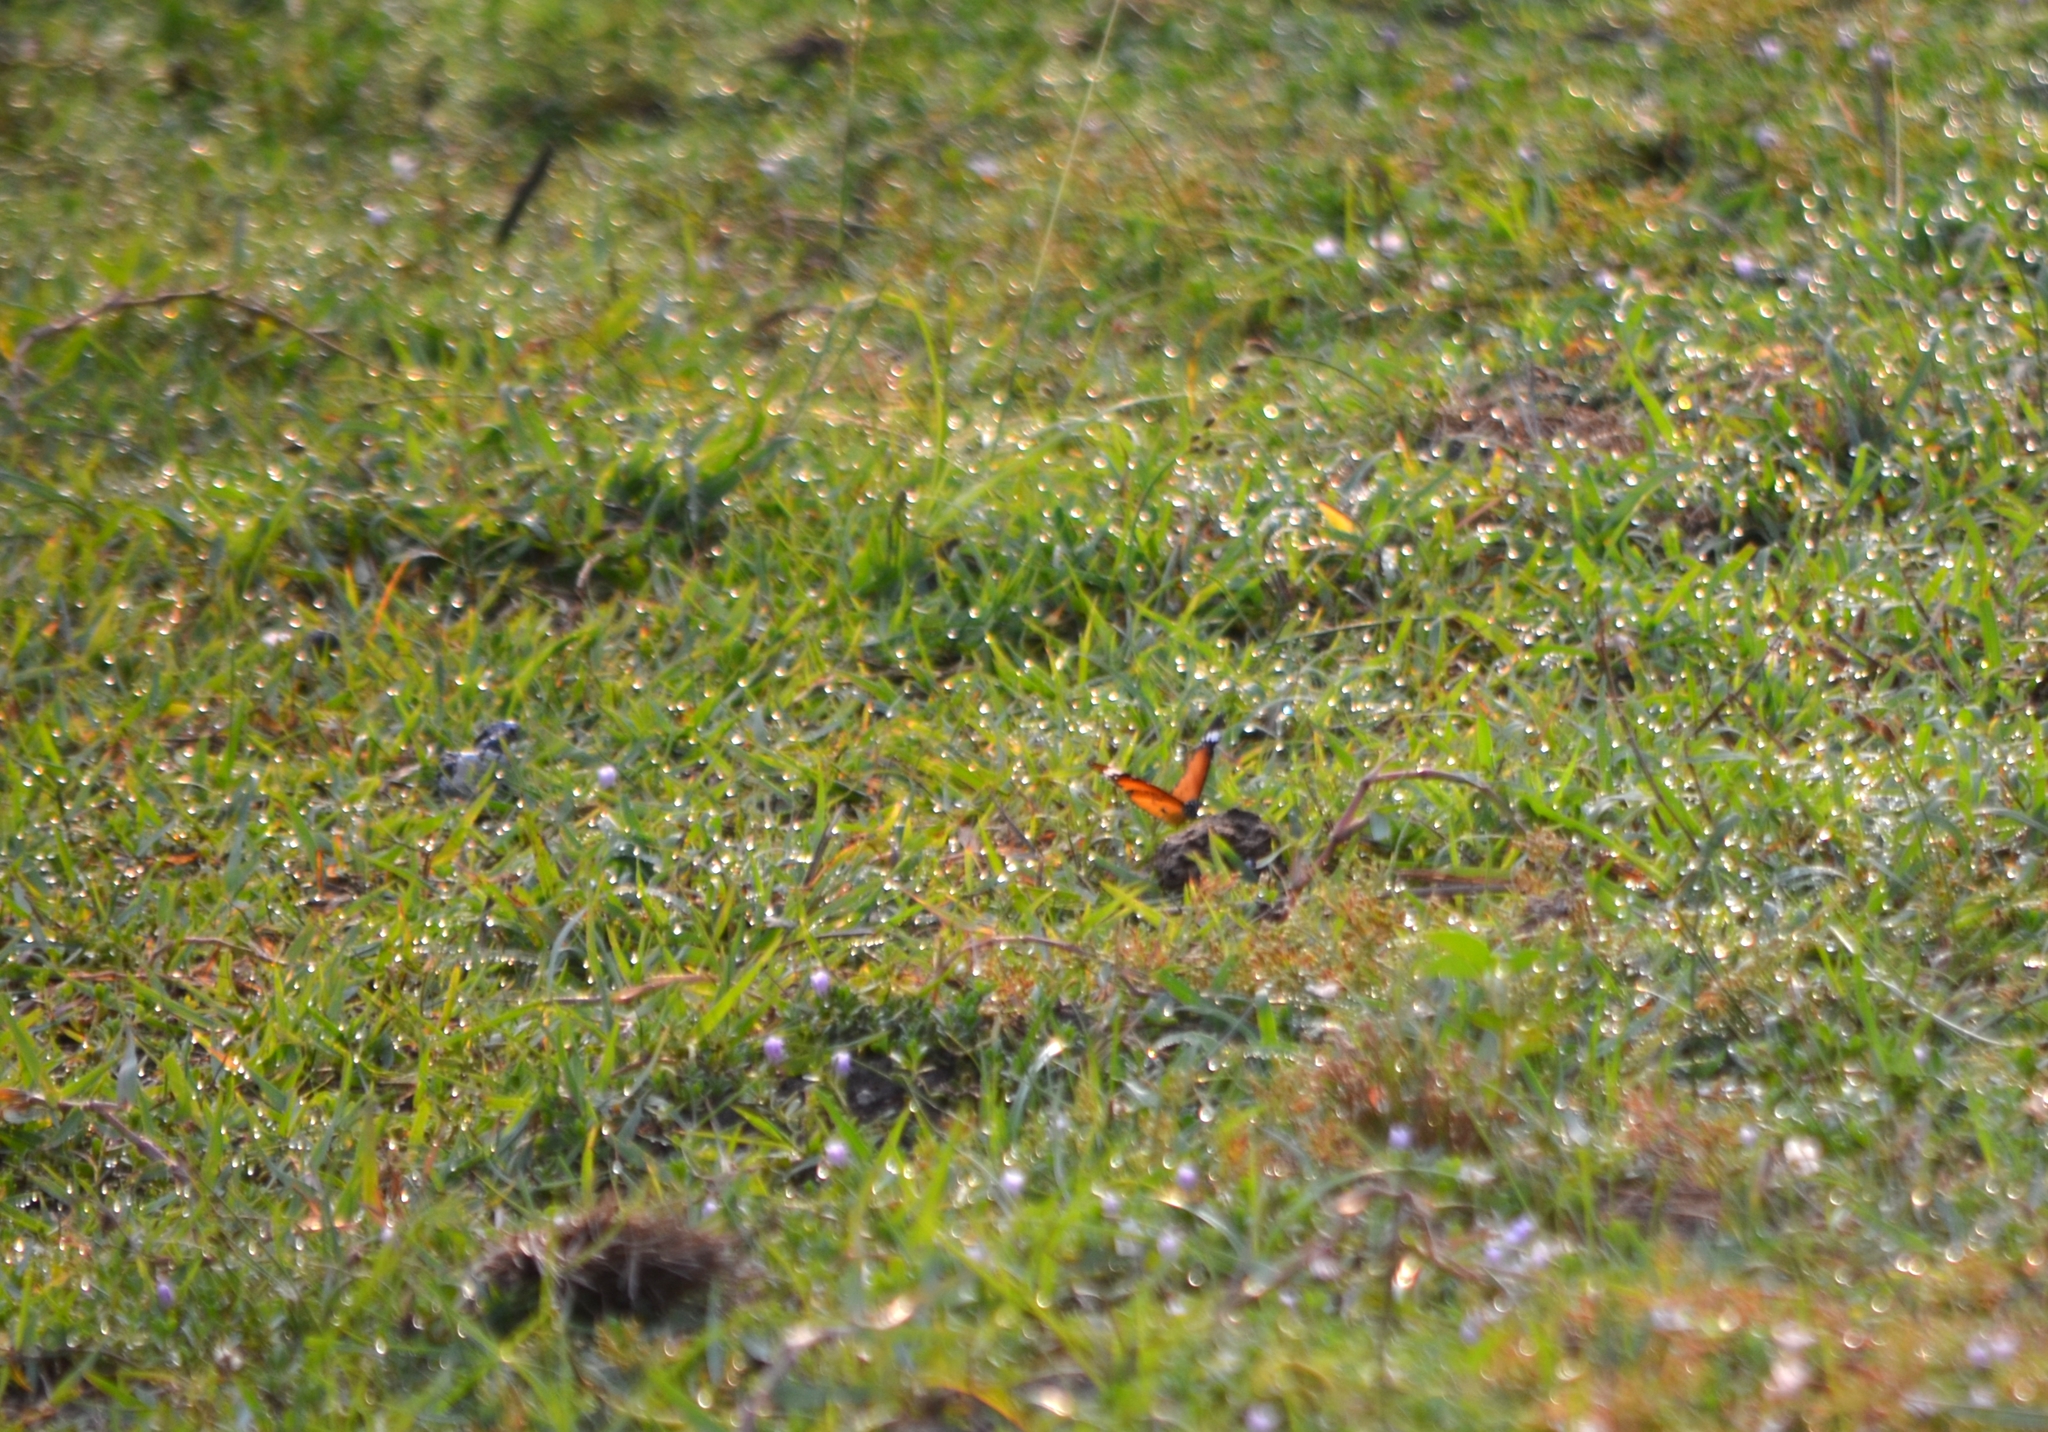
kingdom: Animalia
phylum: Arthropoda
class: Insecta
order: Lepidoptera
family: Nymphalidae
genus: Danaus
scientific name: Danaus chrysippus
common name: Plain tiger
